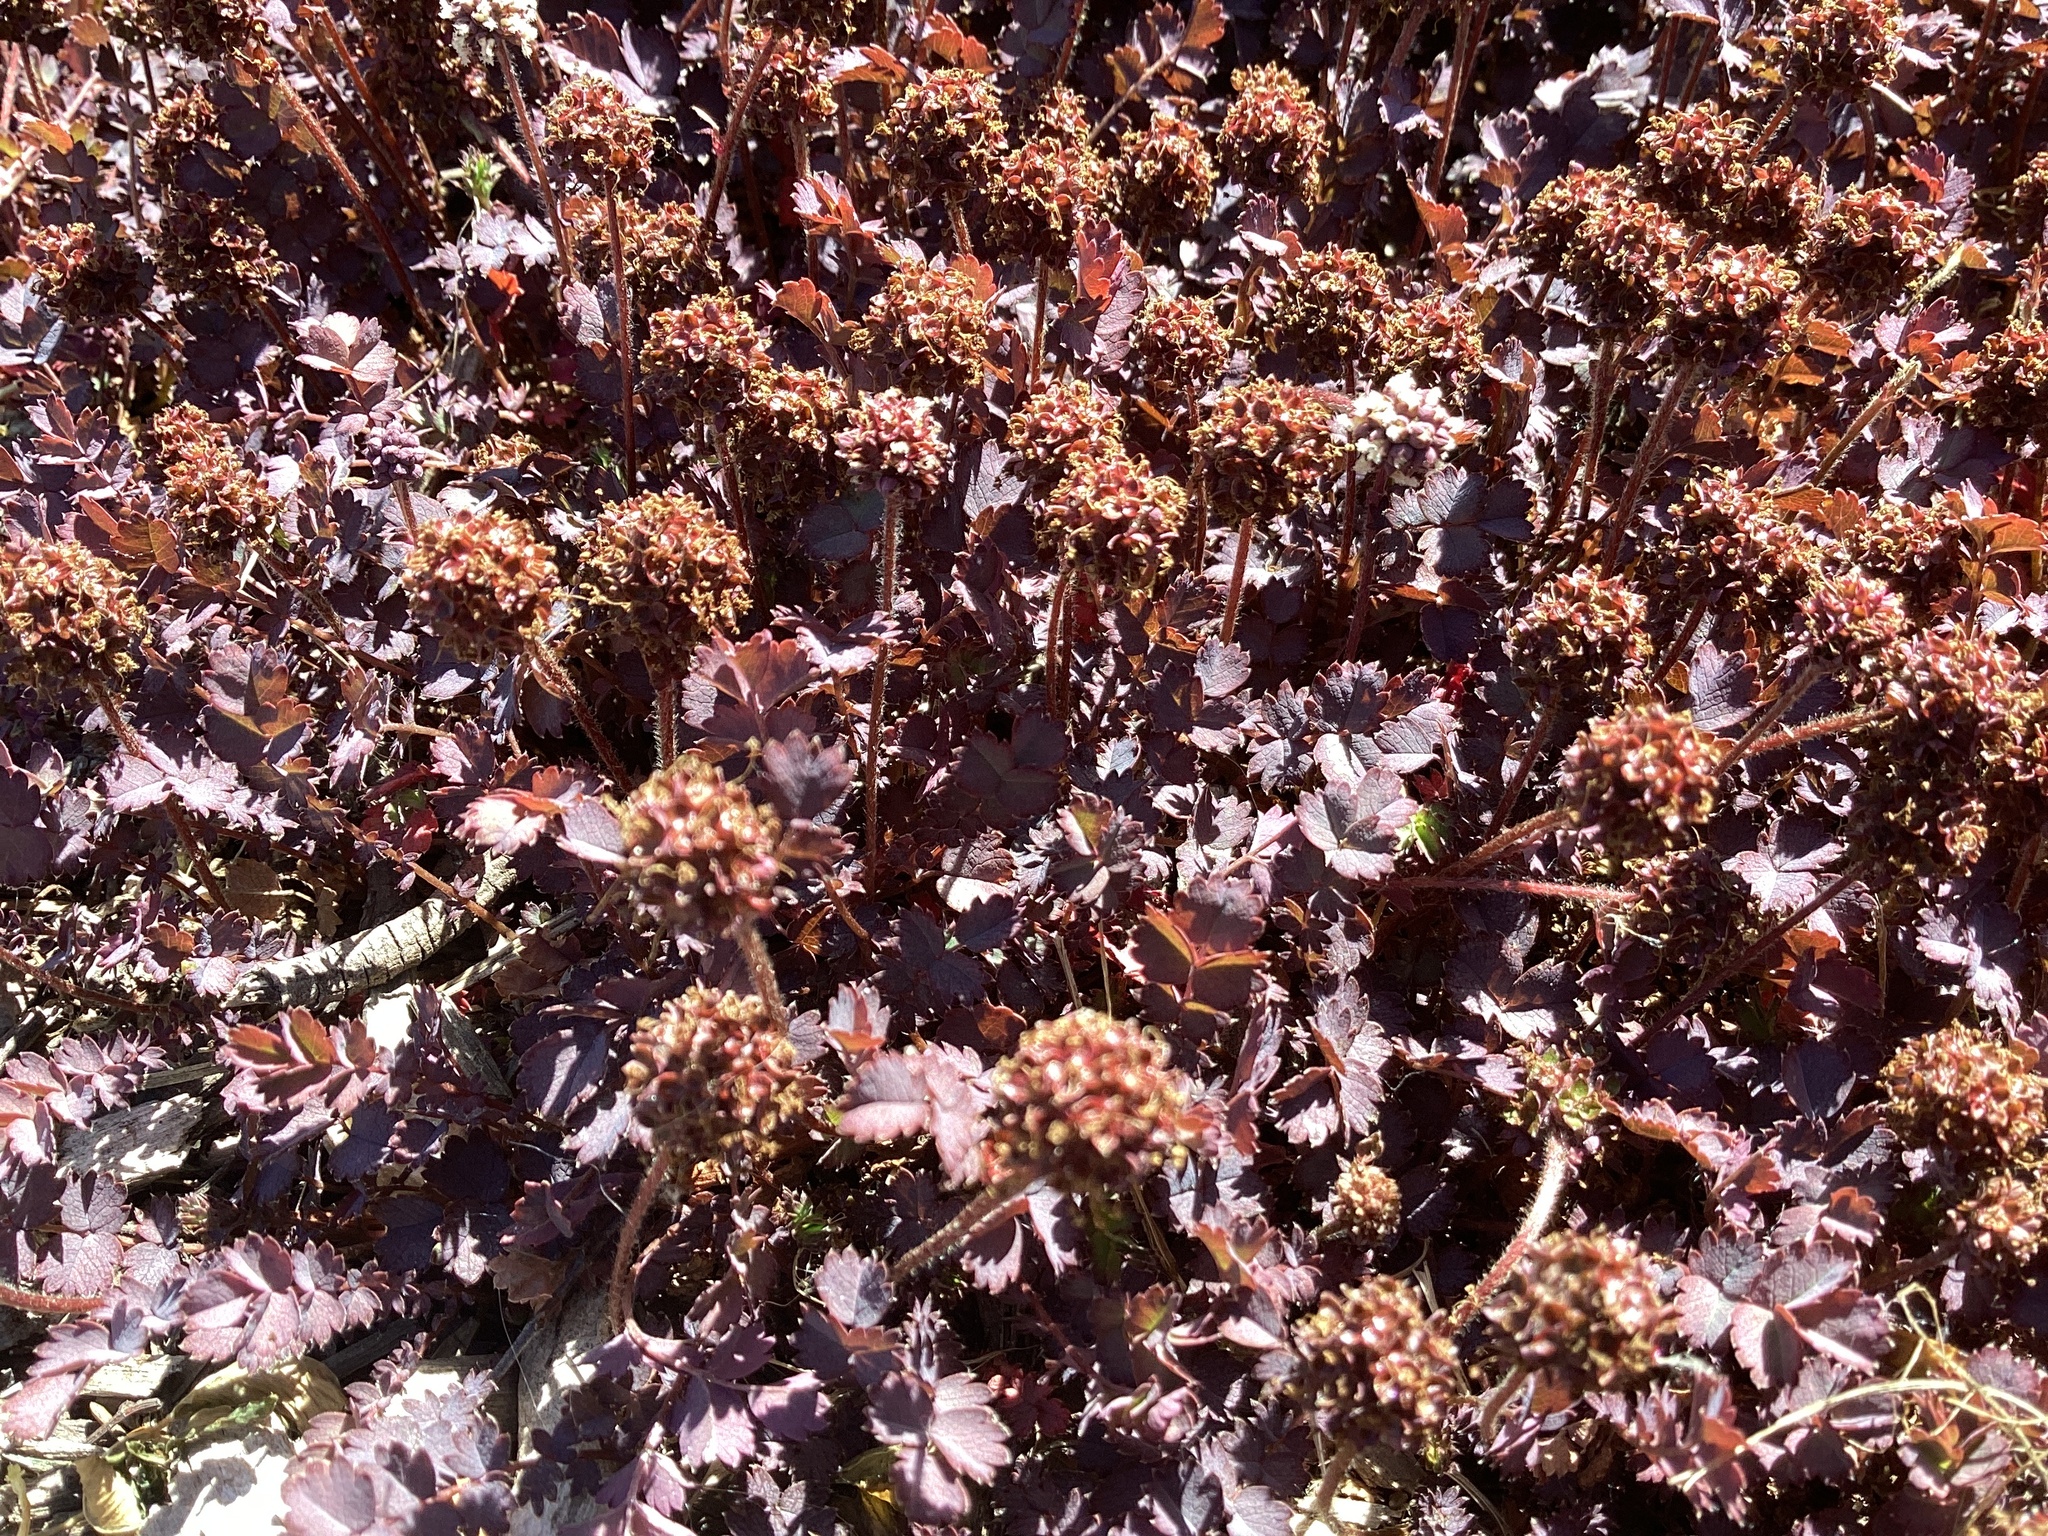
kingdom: Plantae
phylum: Tracheophyta
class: Magnoliopsida
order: Rosales
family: Rosaceae
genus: Acaena
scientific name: Acaena inermis
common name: Spineless acaena
